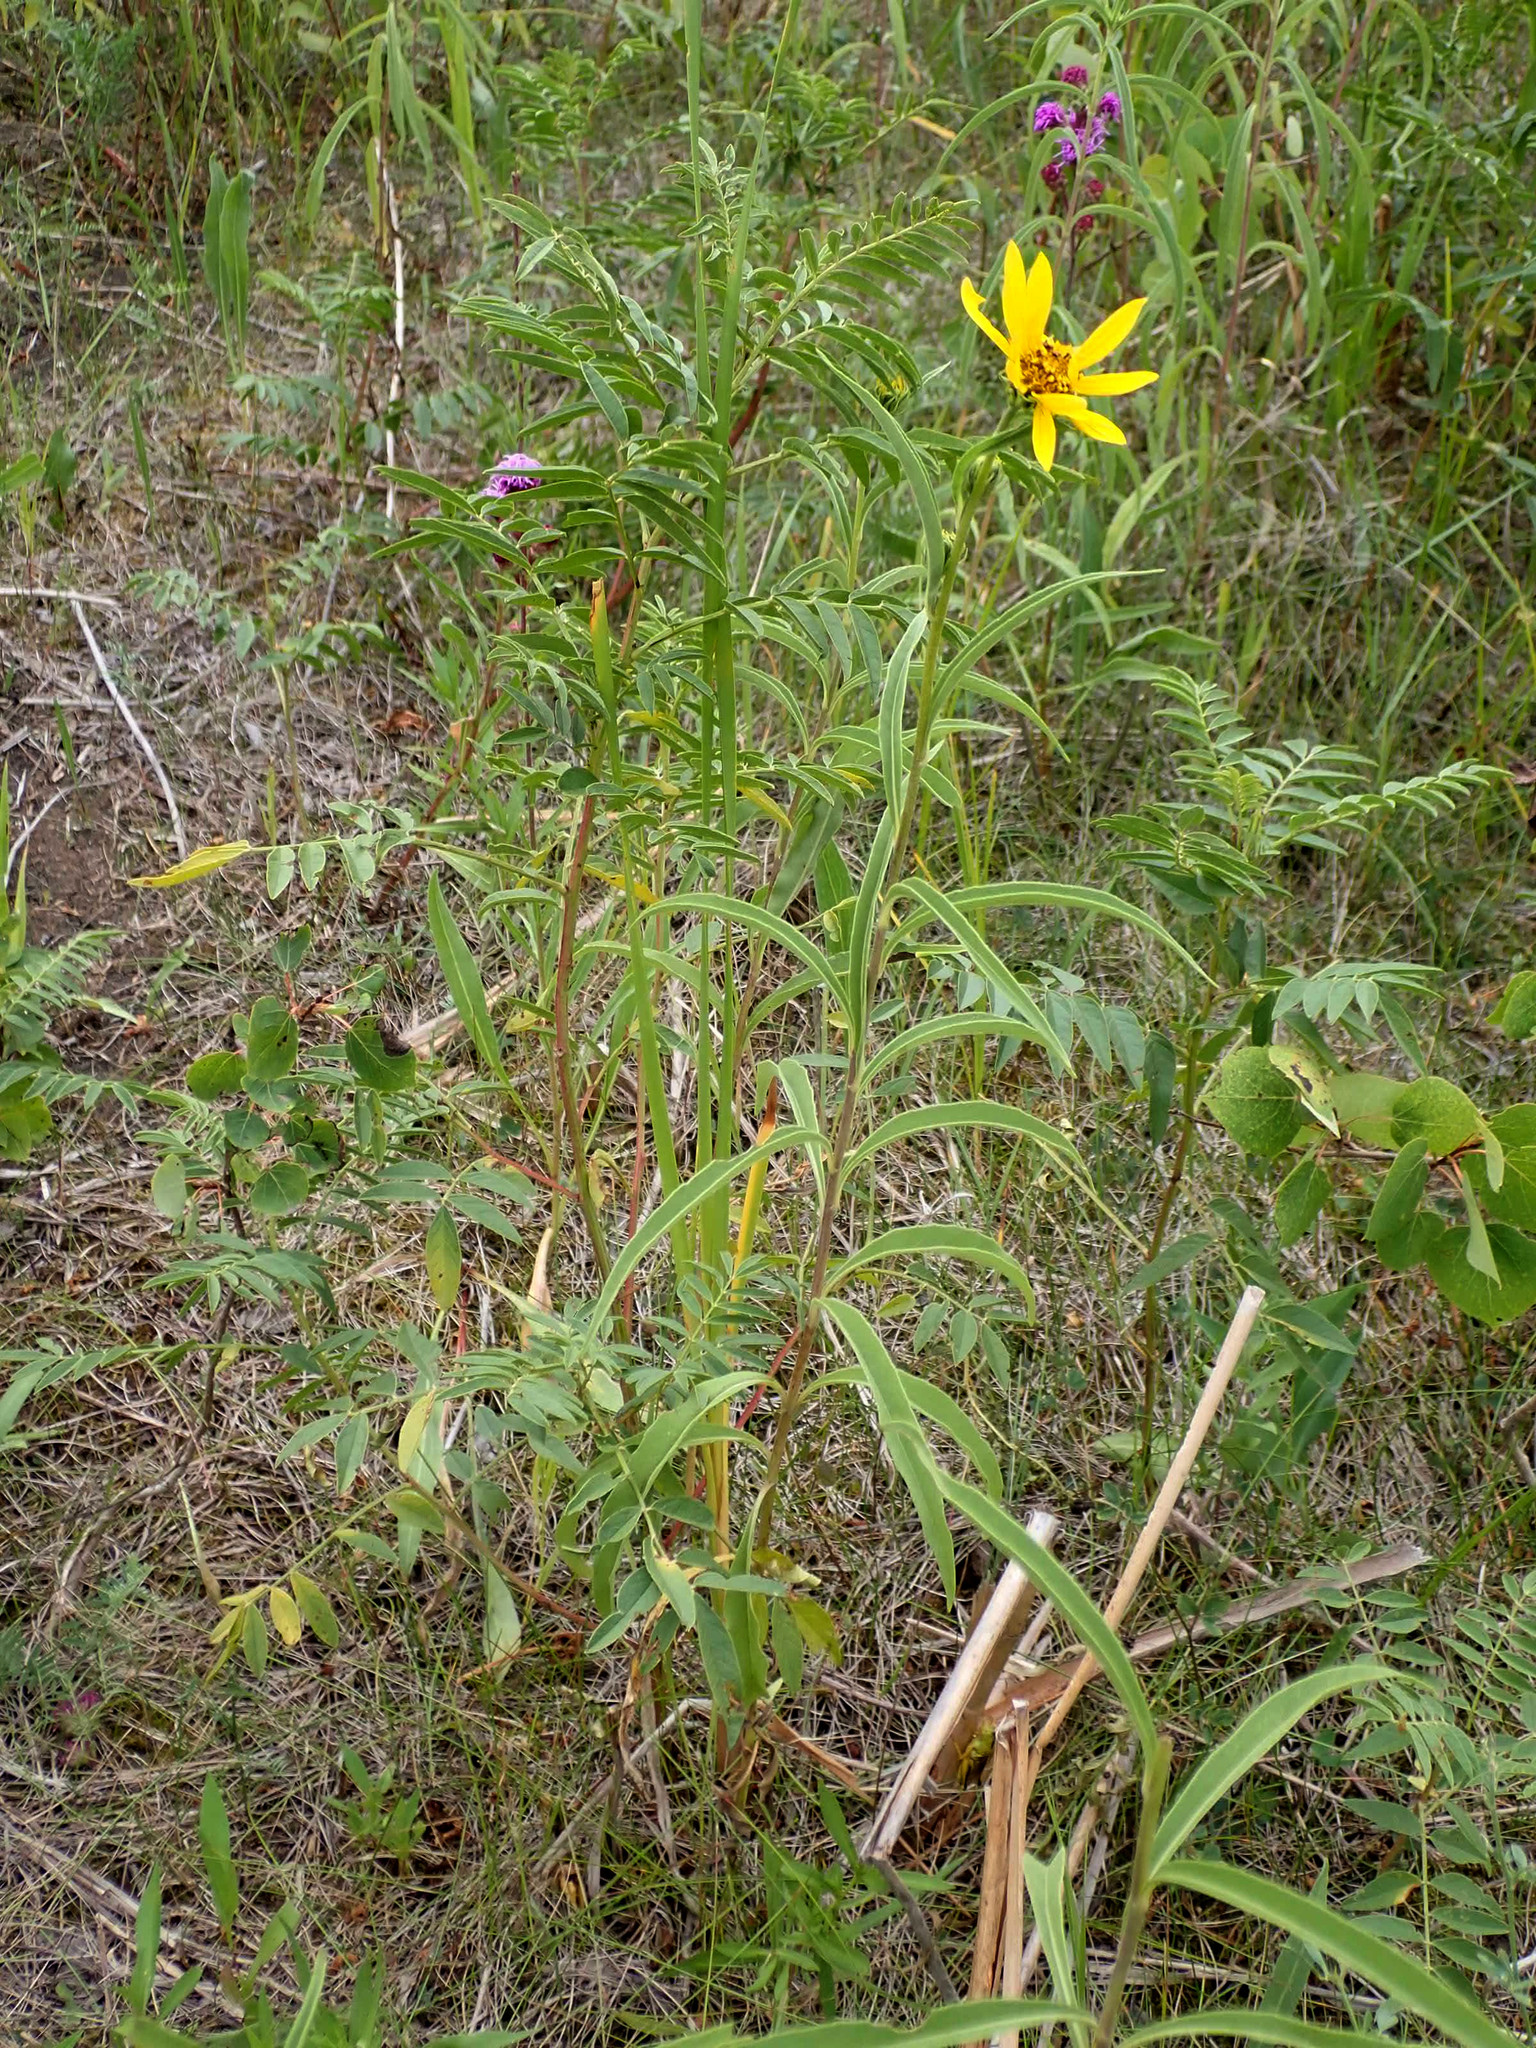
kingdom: Plantae
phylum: Tracheophyta
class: Magnoliopsida
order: Asterales
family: Asteraceae
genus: Helianthus
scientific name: Helianthus maximiliani
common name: Maximilian's sunflower
